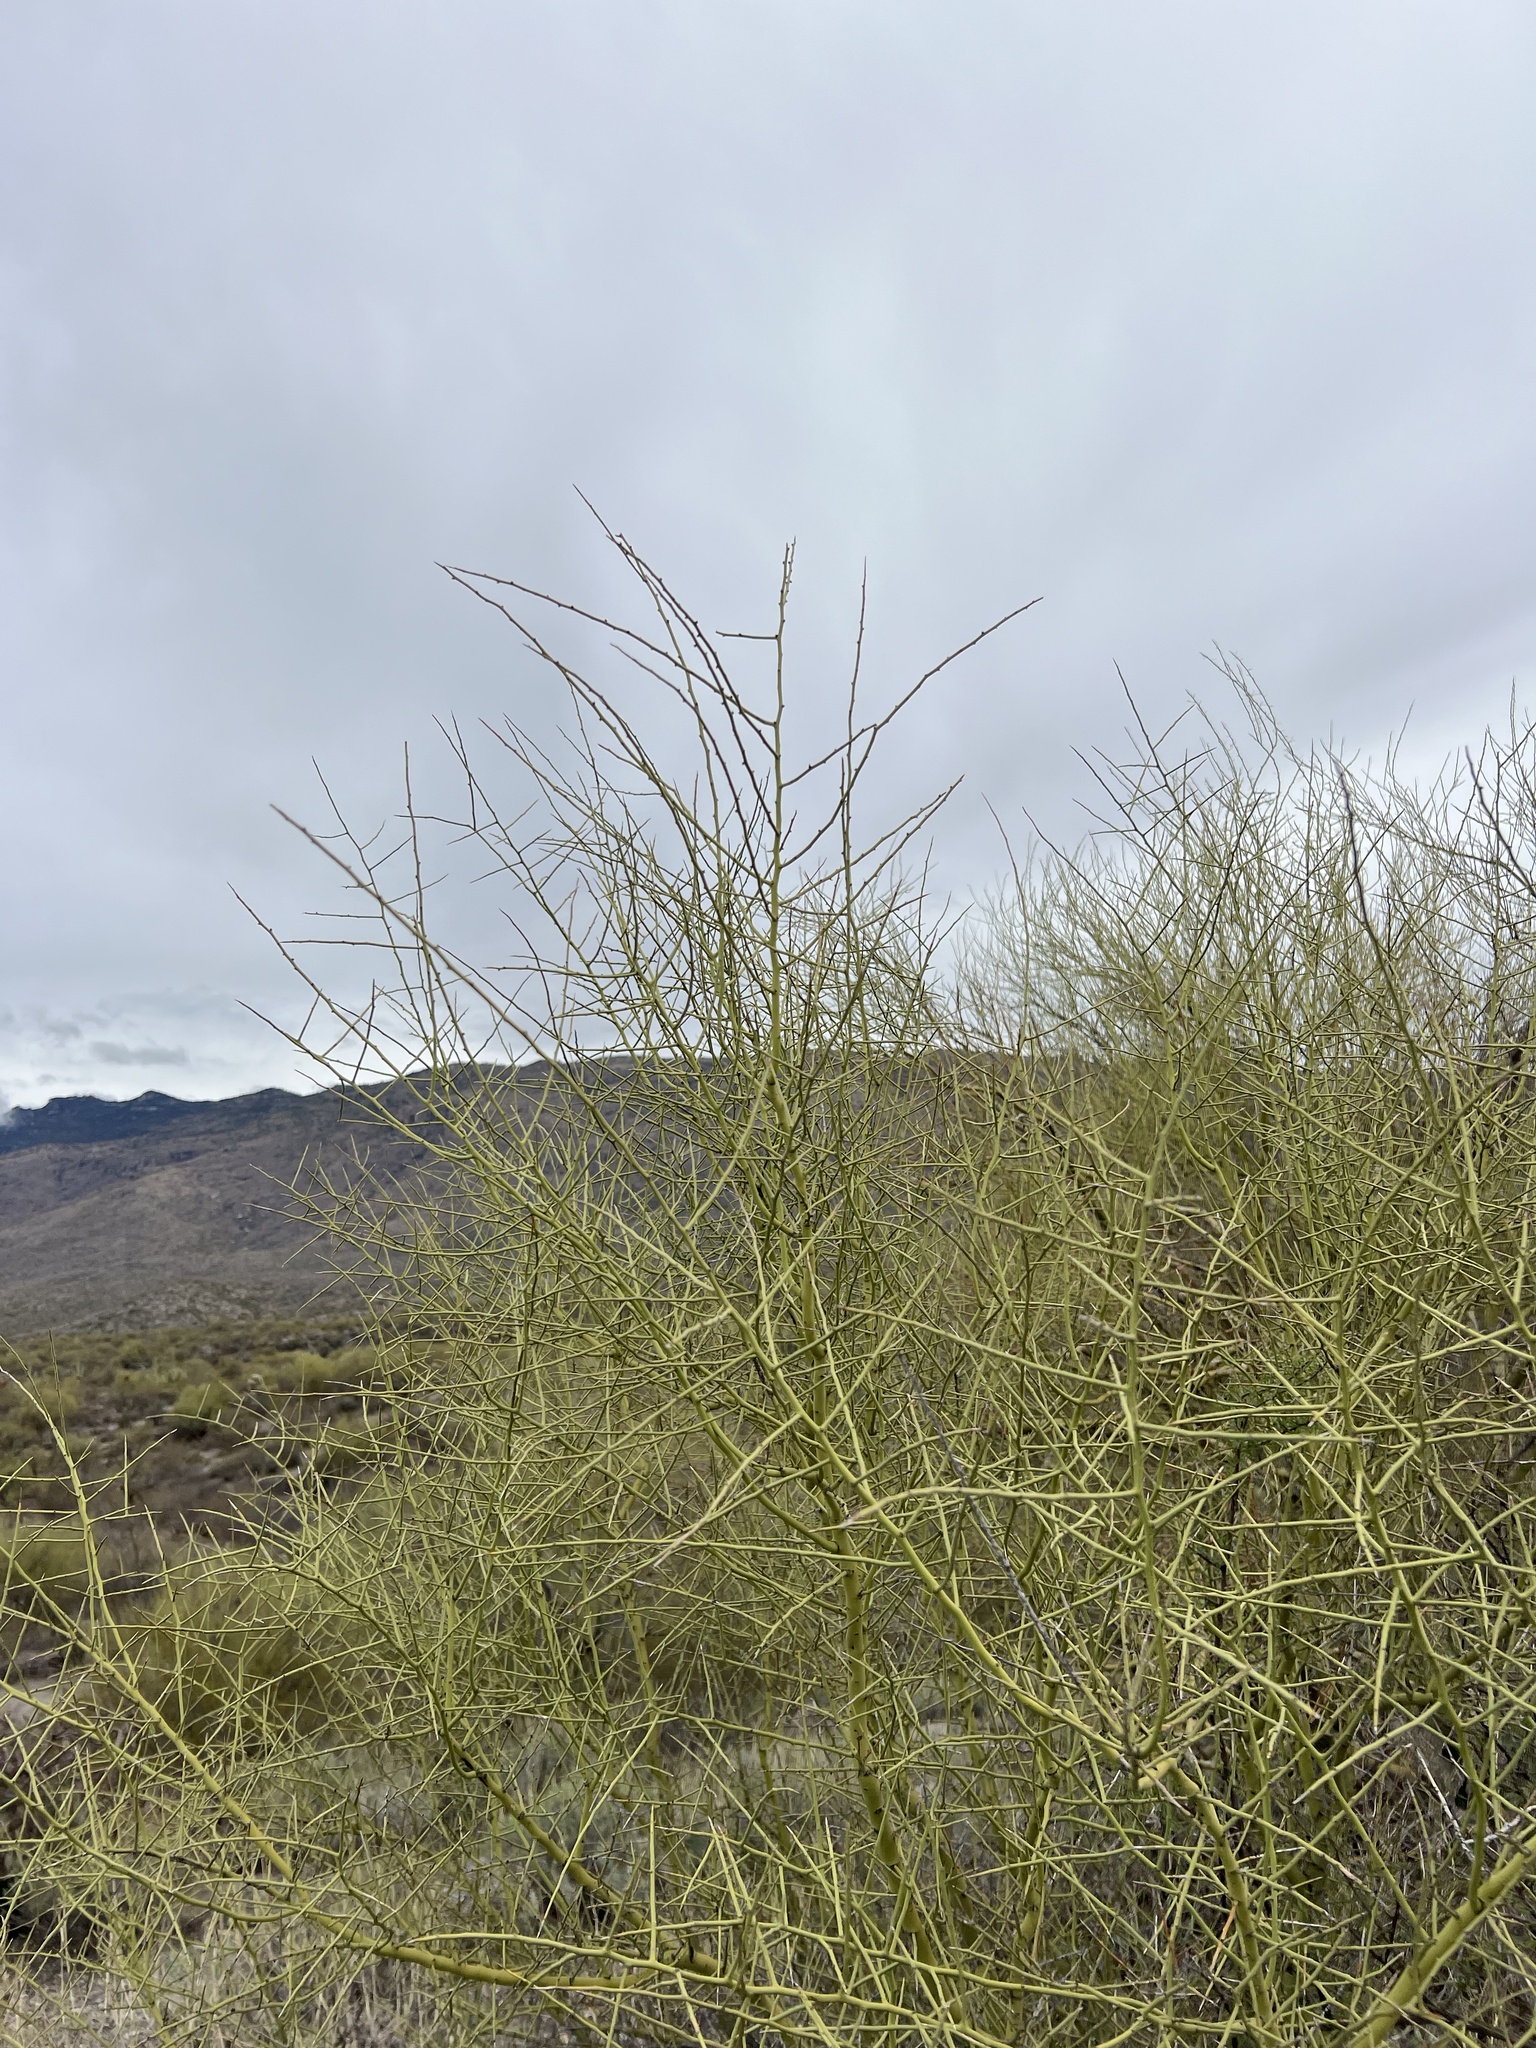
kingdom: Plantae
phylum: Tracheophyta
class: Magnoliopsida
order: Fabales
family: Fabaceae
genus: Parkinsonia
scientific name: Parkinsonia microphylla
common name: Yellow paloverde
